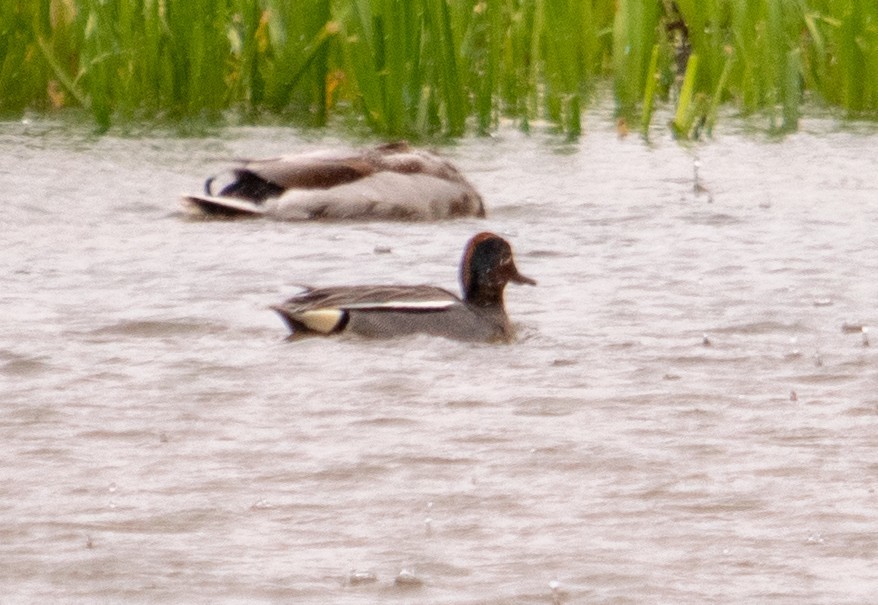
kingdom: Animalia
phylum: Chordata
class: Aves
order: Anseriformes
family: Anatidae
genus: Anas
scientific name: Anas crecca
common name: Eurasian teal
